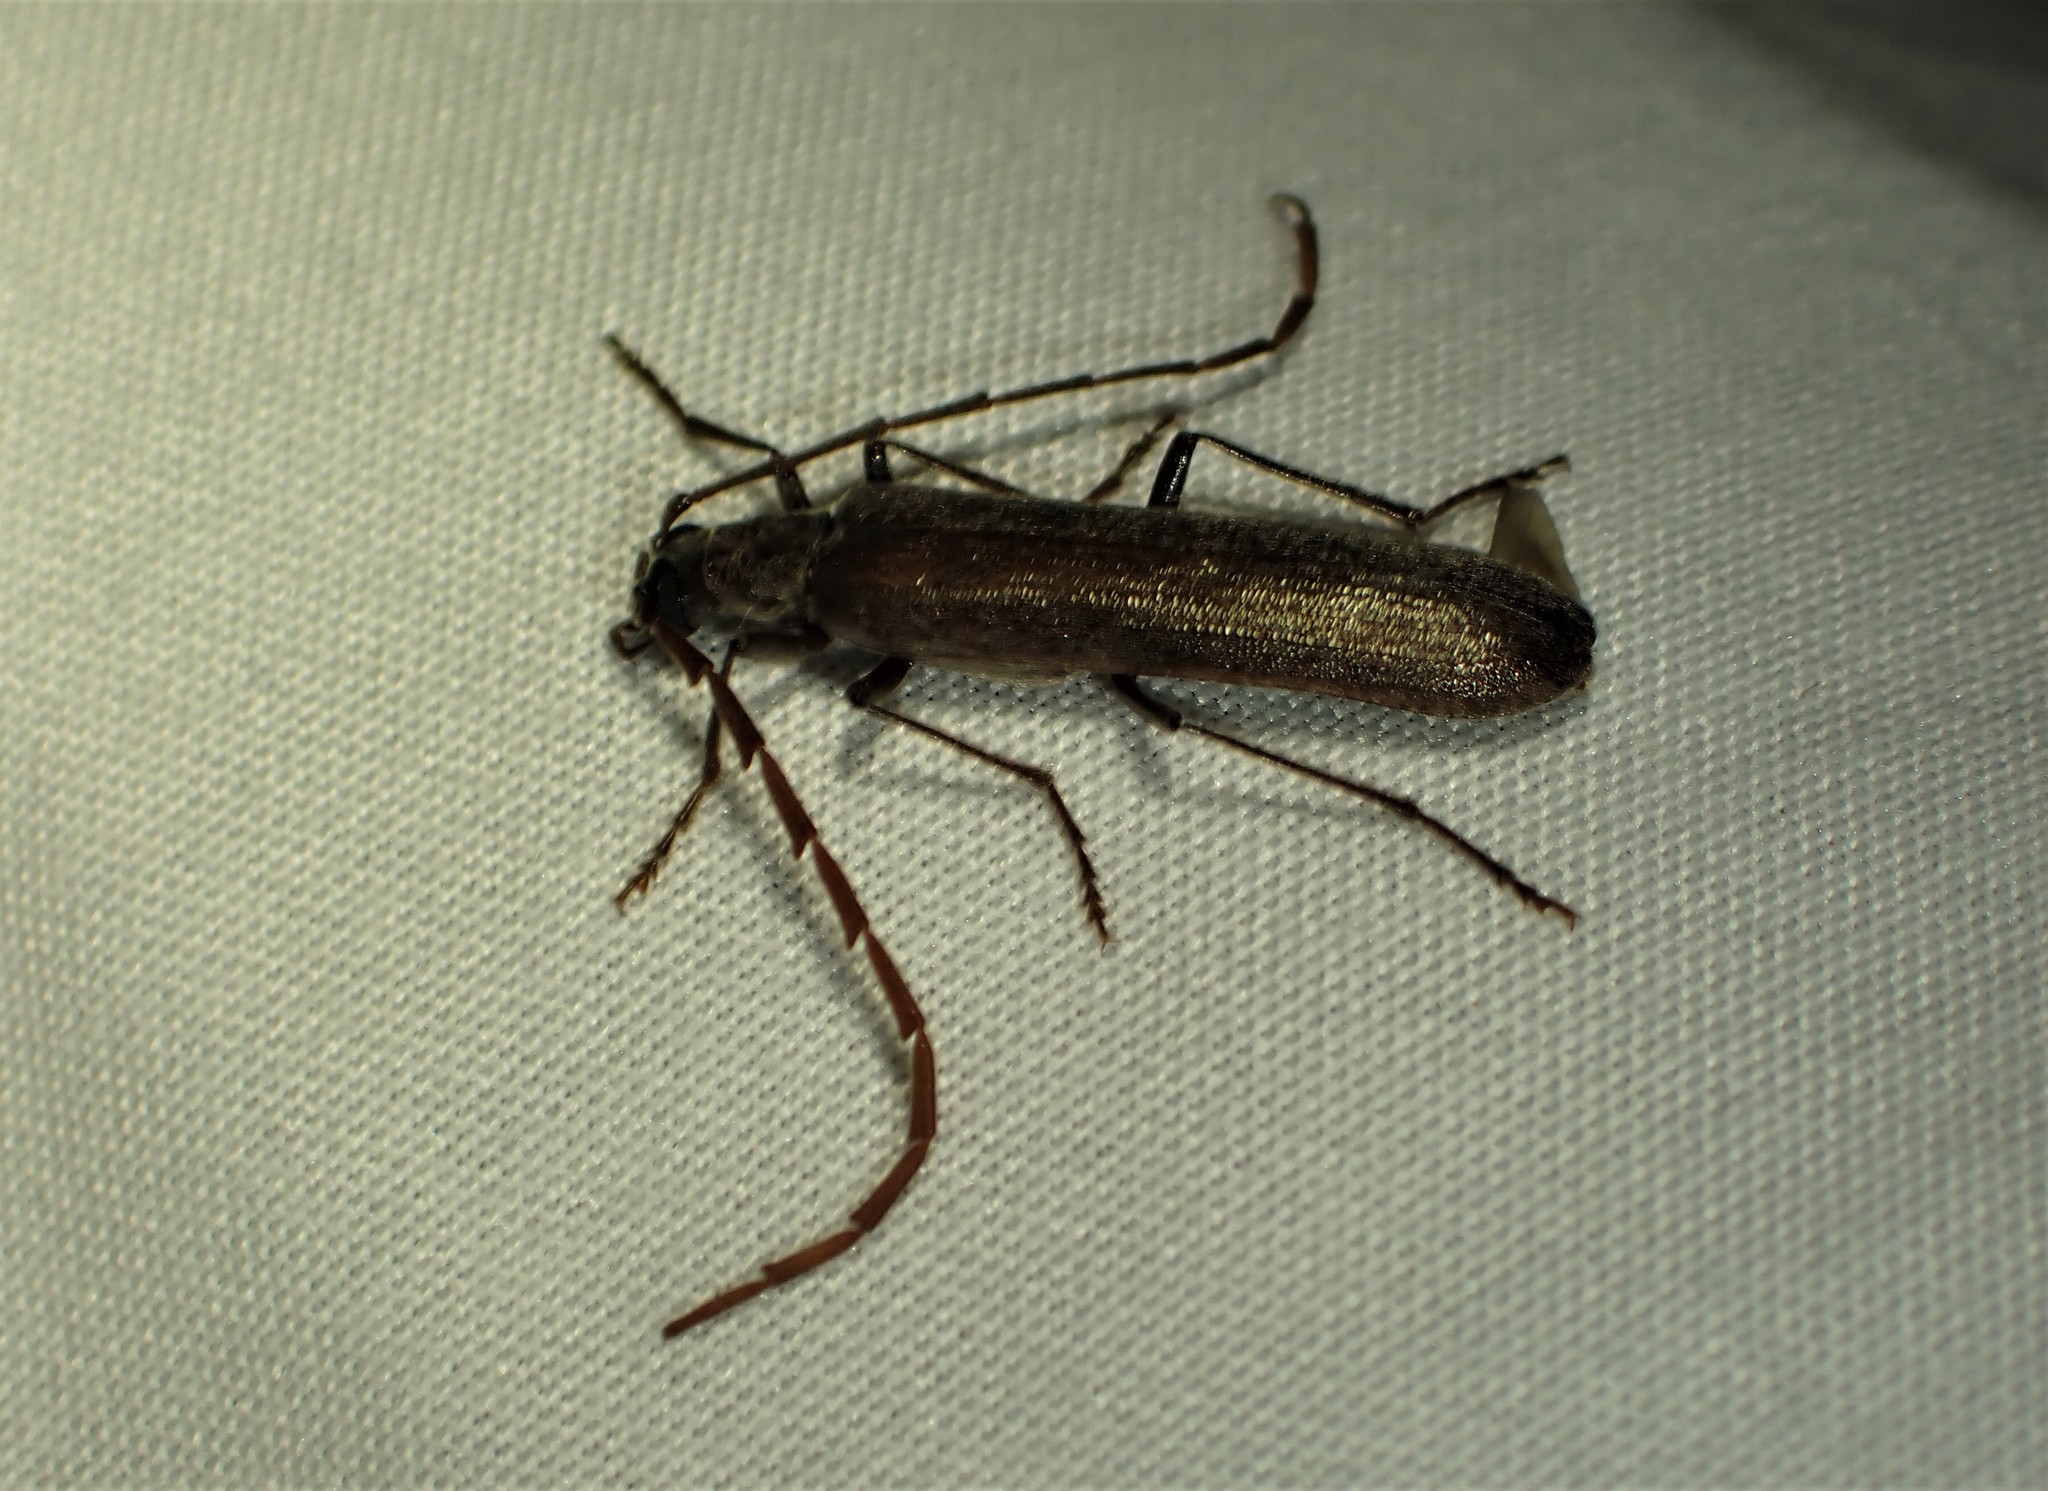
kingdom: Animalia
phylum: Arthropoda
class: Insecta
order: Coleoptera
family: Oedemeridae
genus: Calopus
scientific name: Calopus angustus
